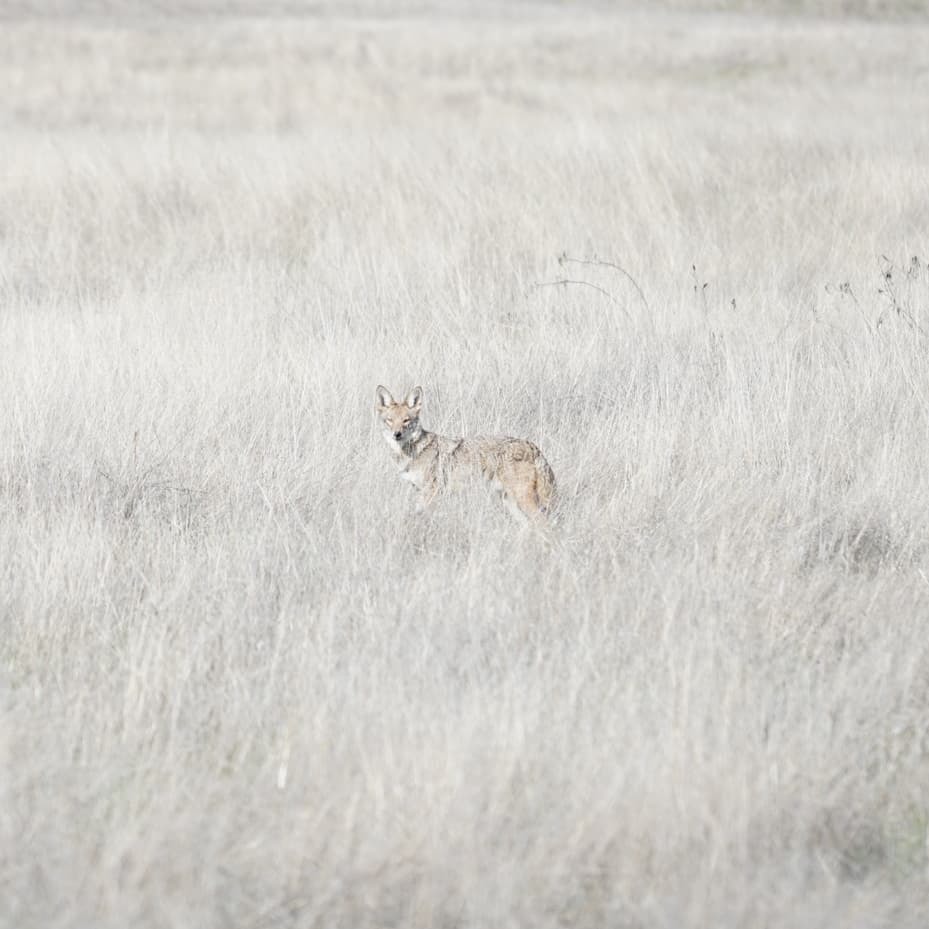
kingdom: Animalia
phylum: Chordata
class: Mammalia
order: Carnivora
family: Canidae
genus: Canis
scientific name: Canis latrans
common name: Coyote
